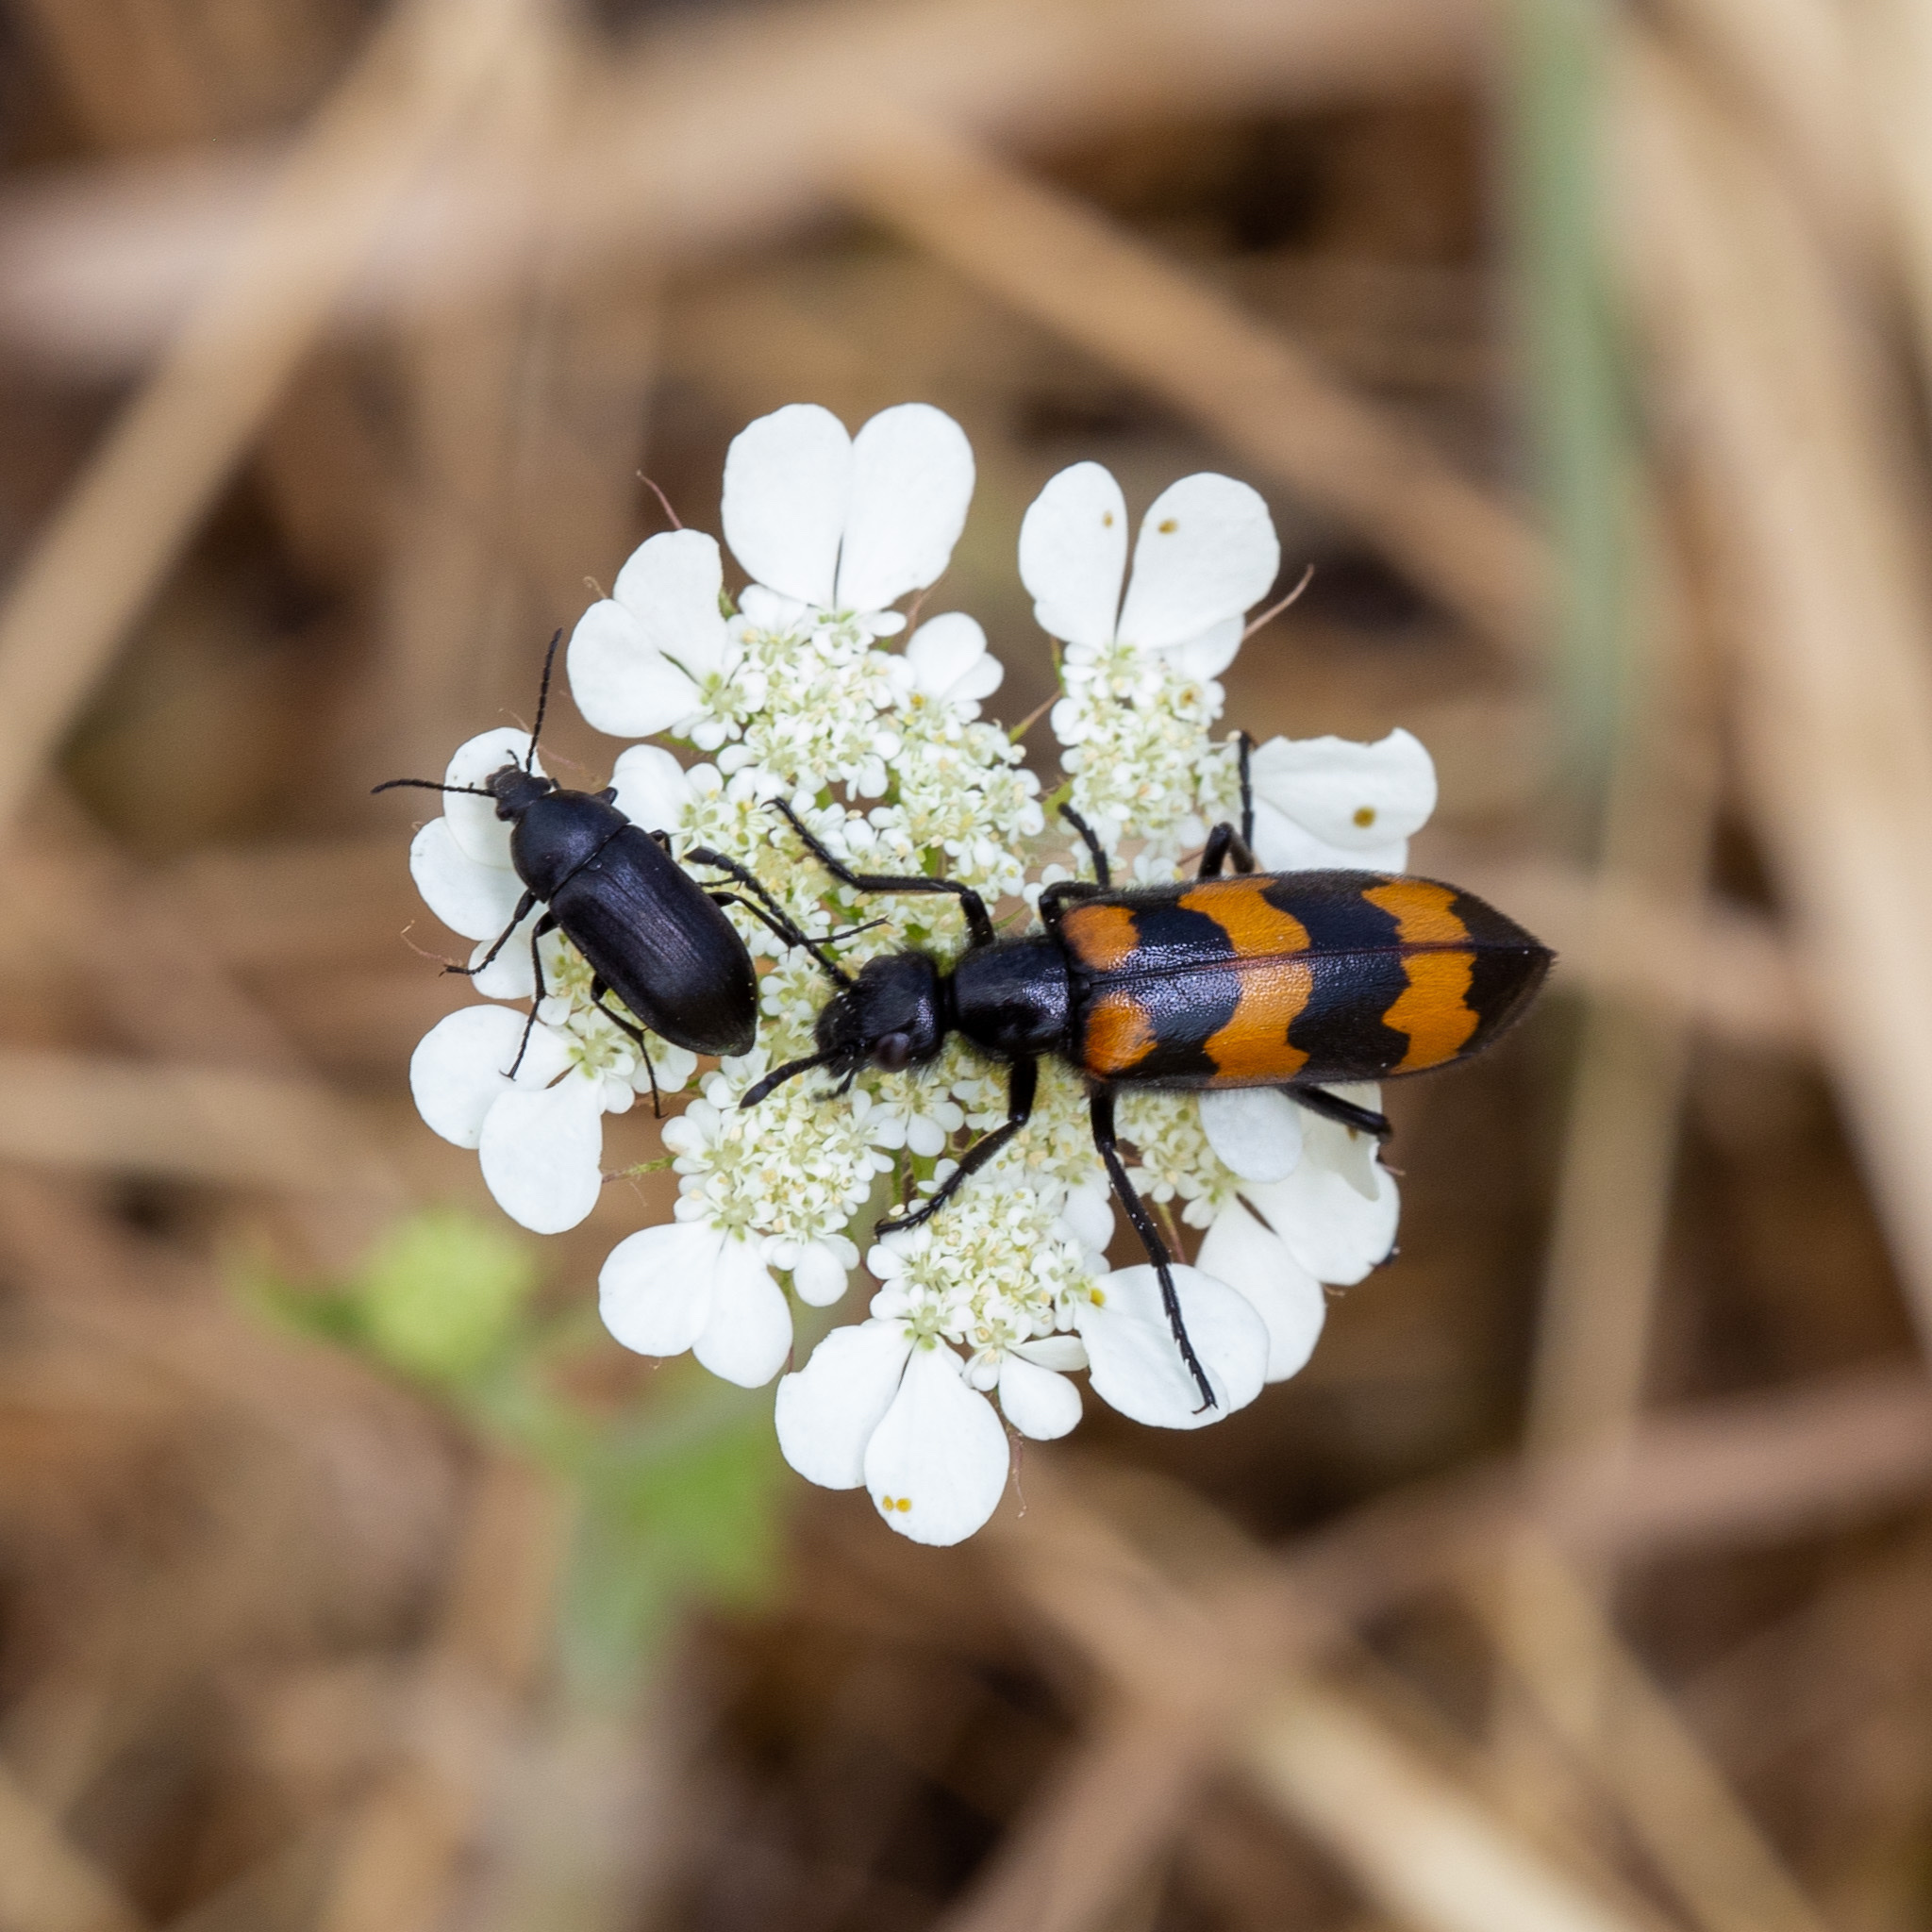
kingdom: Animalia
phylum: Arthropoda
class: Insecta
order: Coleoptera
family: Meloidae
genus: Mylabris
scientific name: Mylabris variabilis
